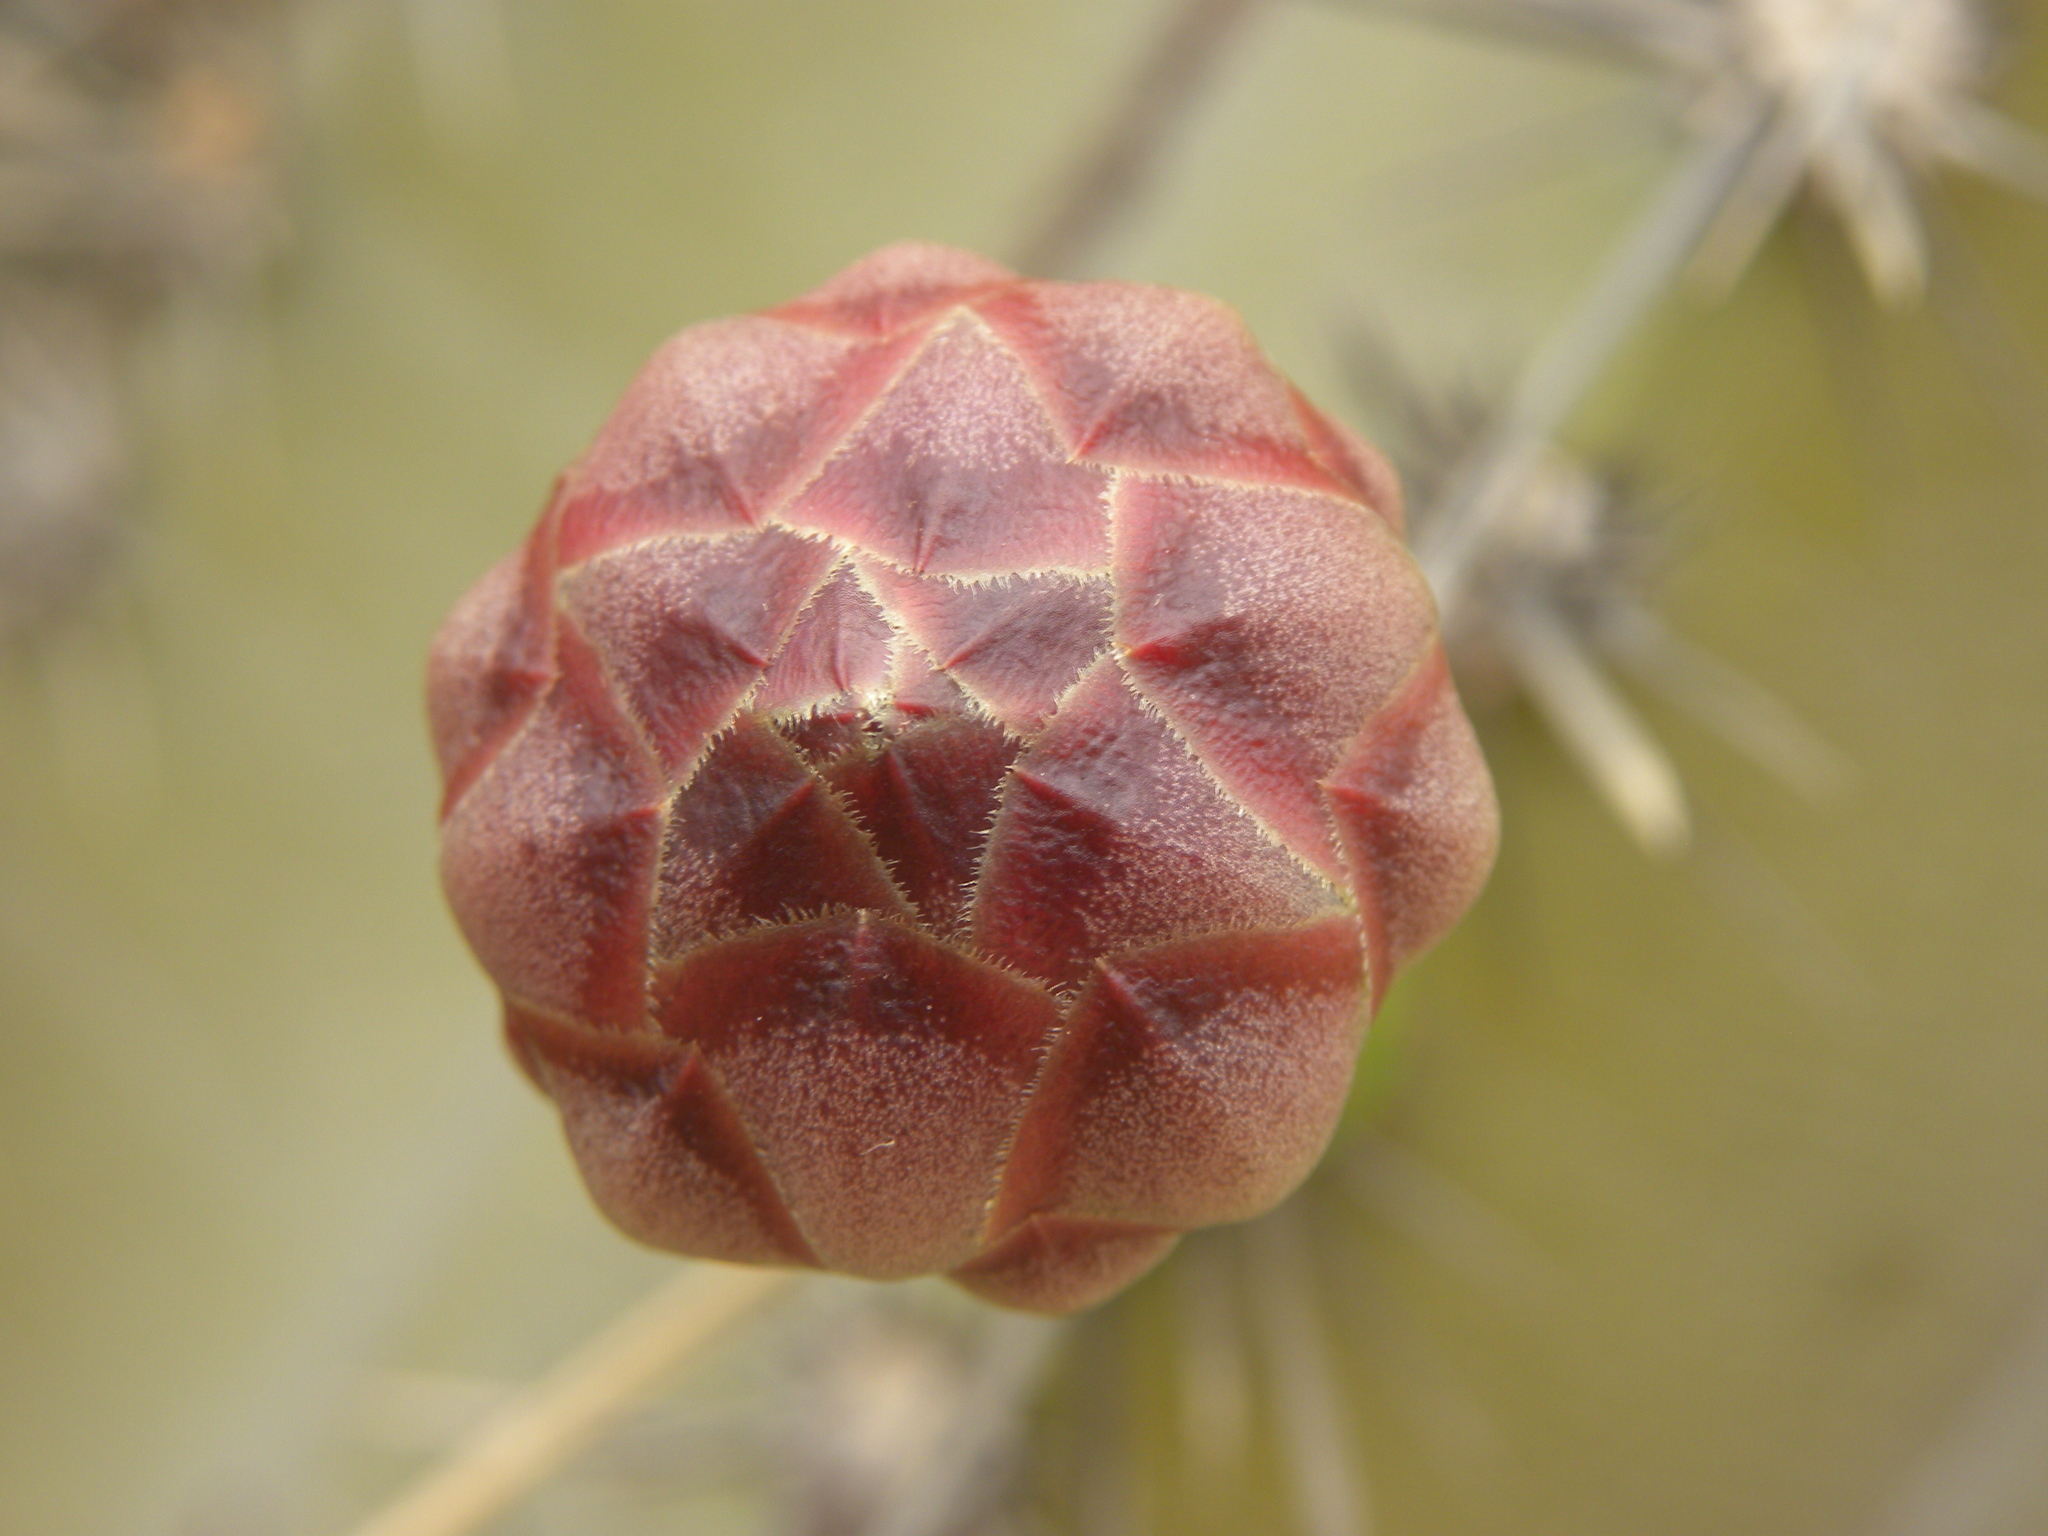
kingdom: Plantae
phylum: Tracheophyta
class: Magnoliopsida
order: Caryophyllales
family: Cactaceae
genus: Stenocereus
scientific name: Stenocereus griseus
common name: Tall candelabra cactus
